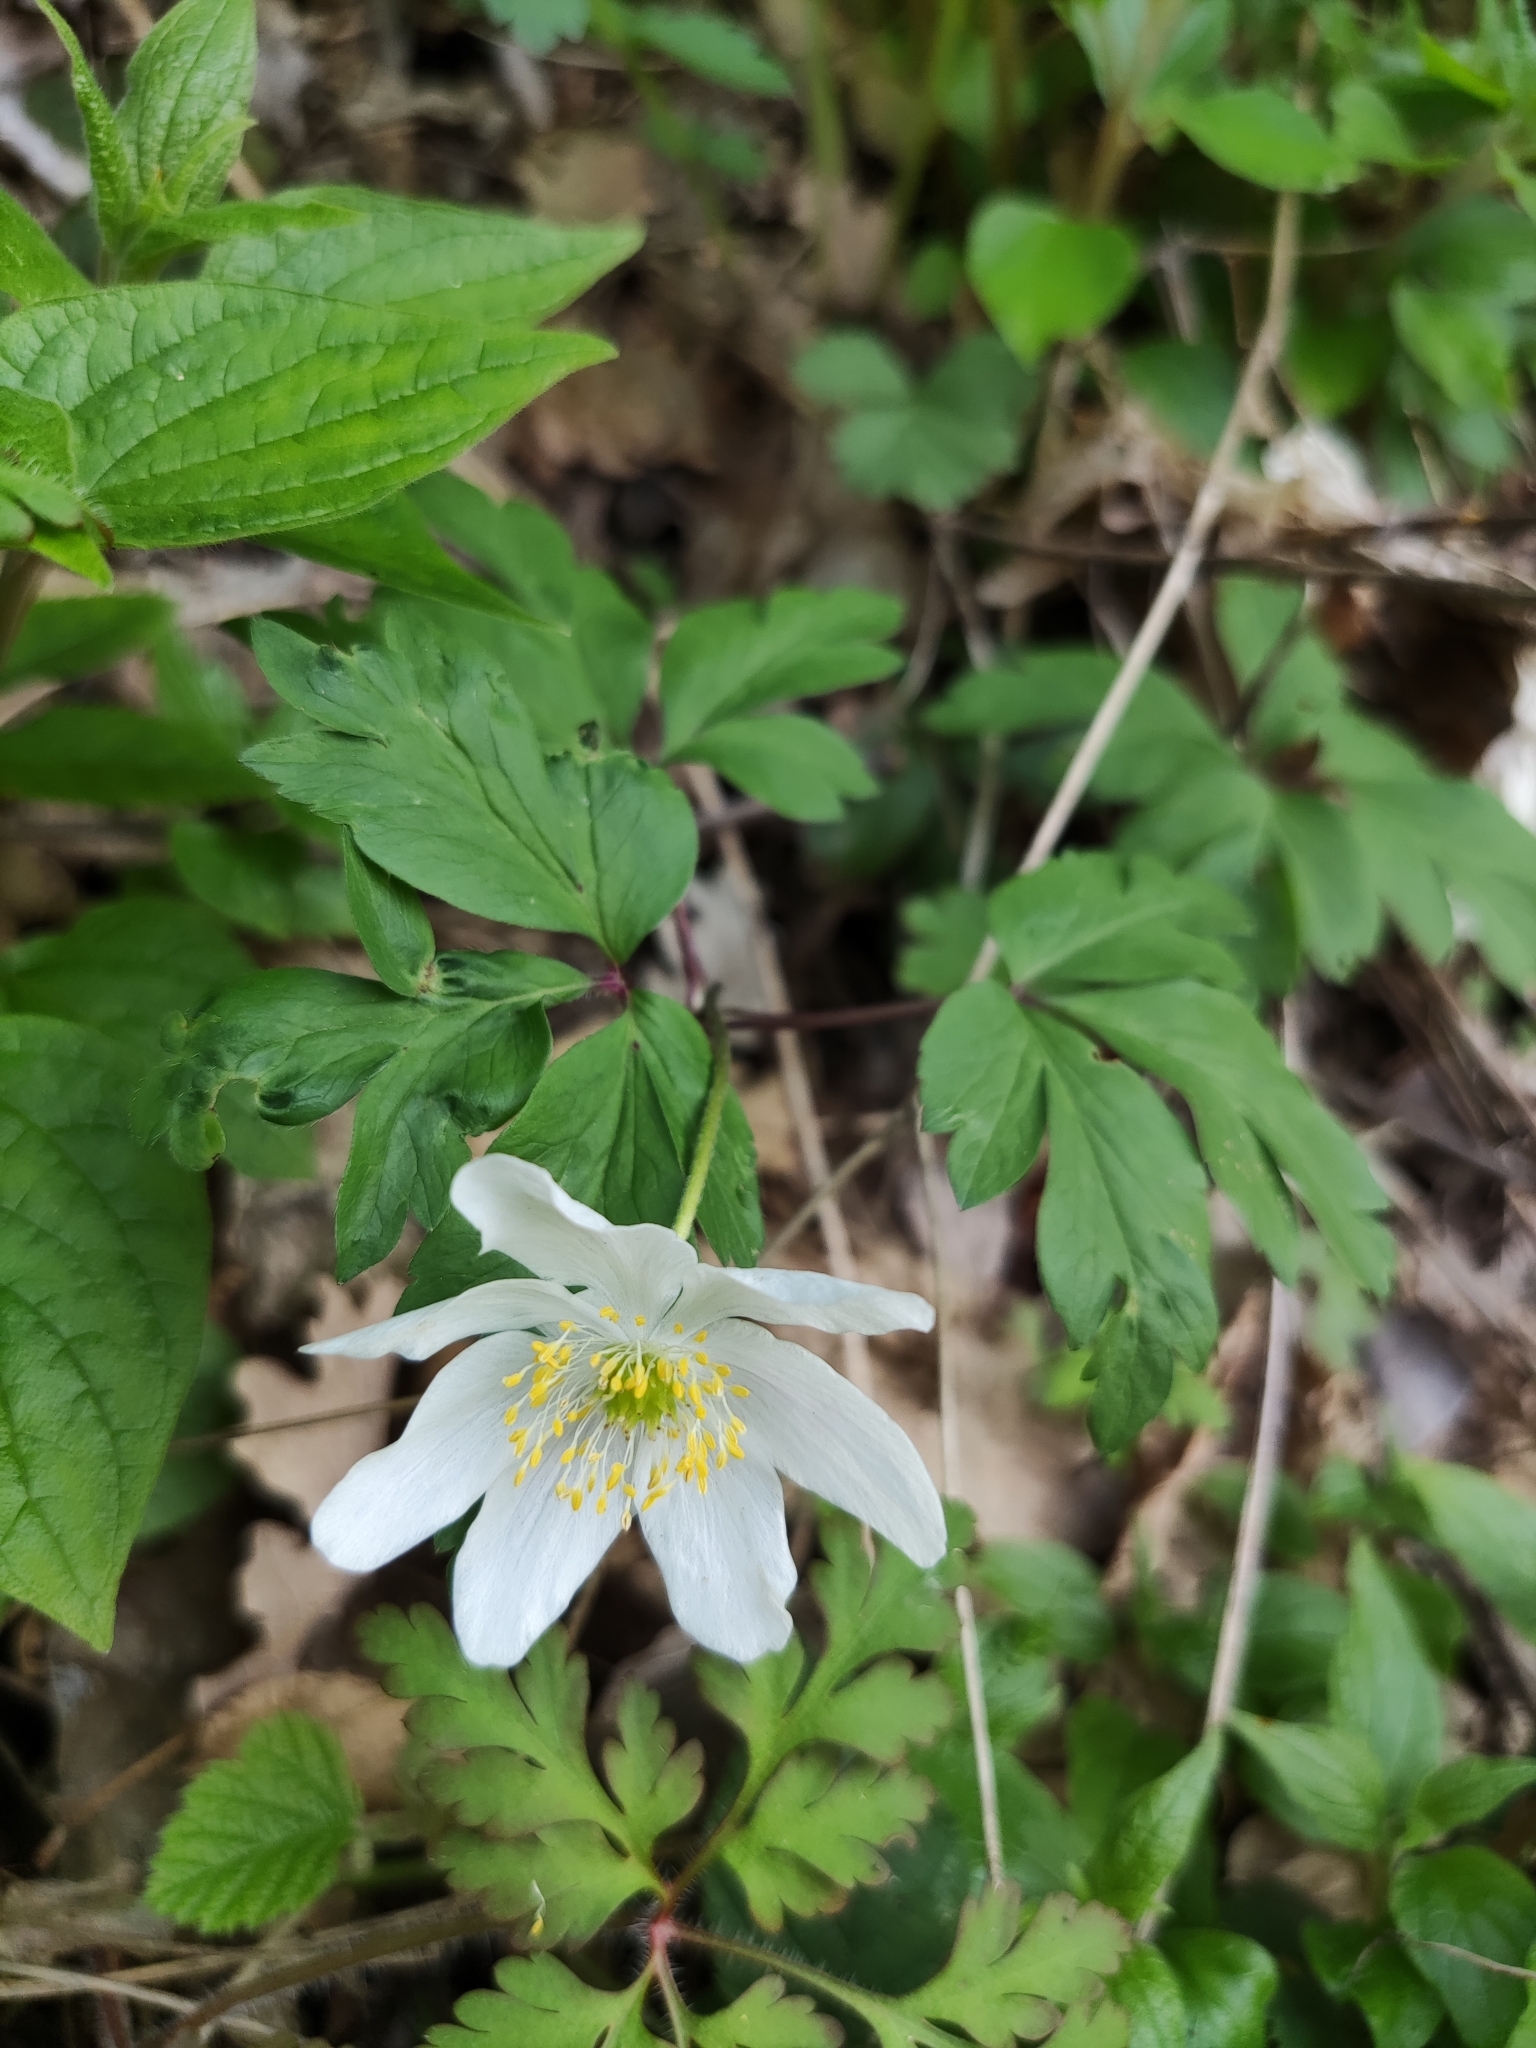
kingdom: Plantae
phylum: Tracheophyta
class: Magnoliopsida
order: Ranunculales
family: Ranunculaceae
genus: Anemone
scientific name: Anemone nemorosa
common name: Wood anemone
